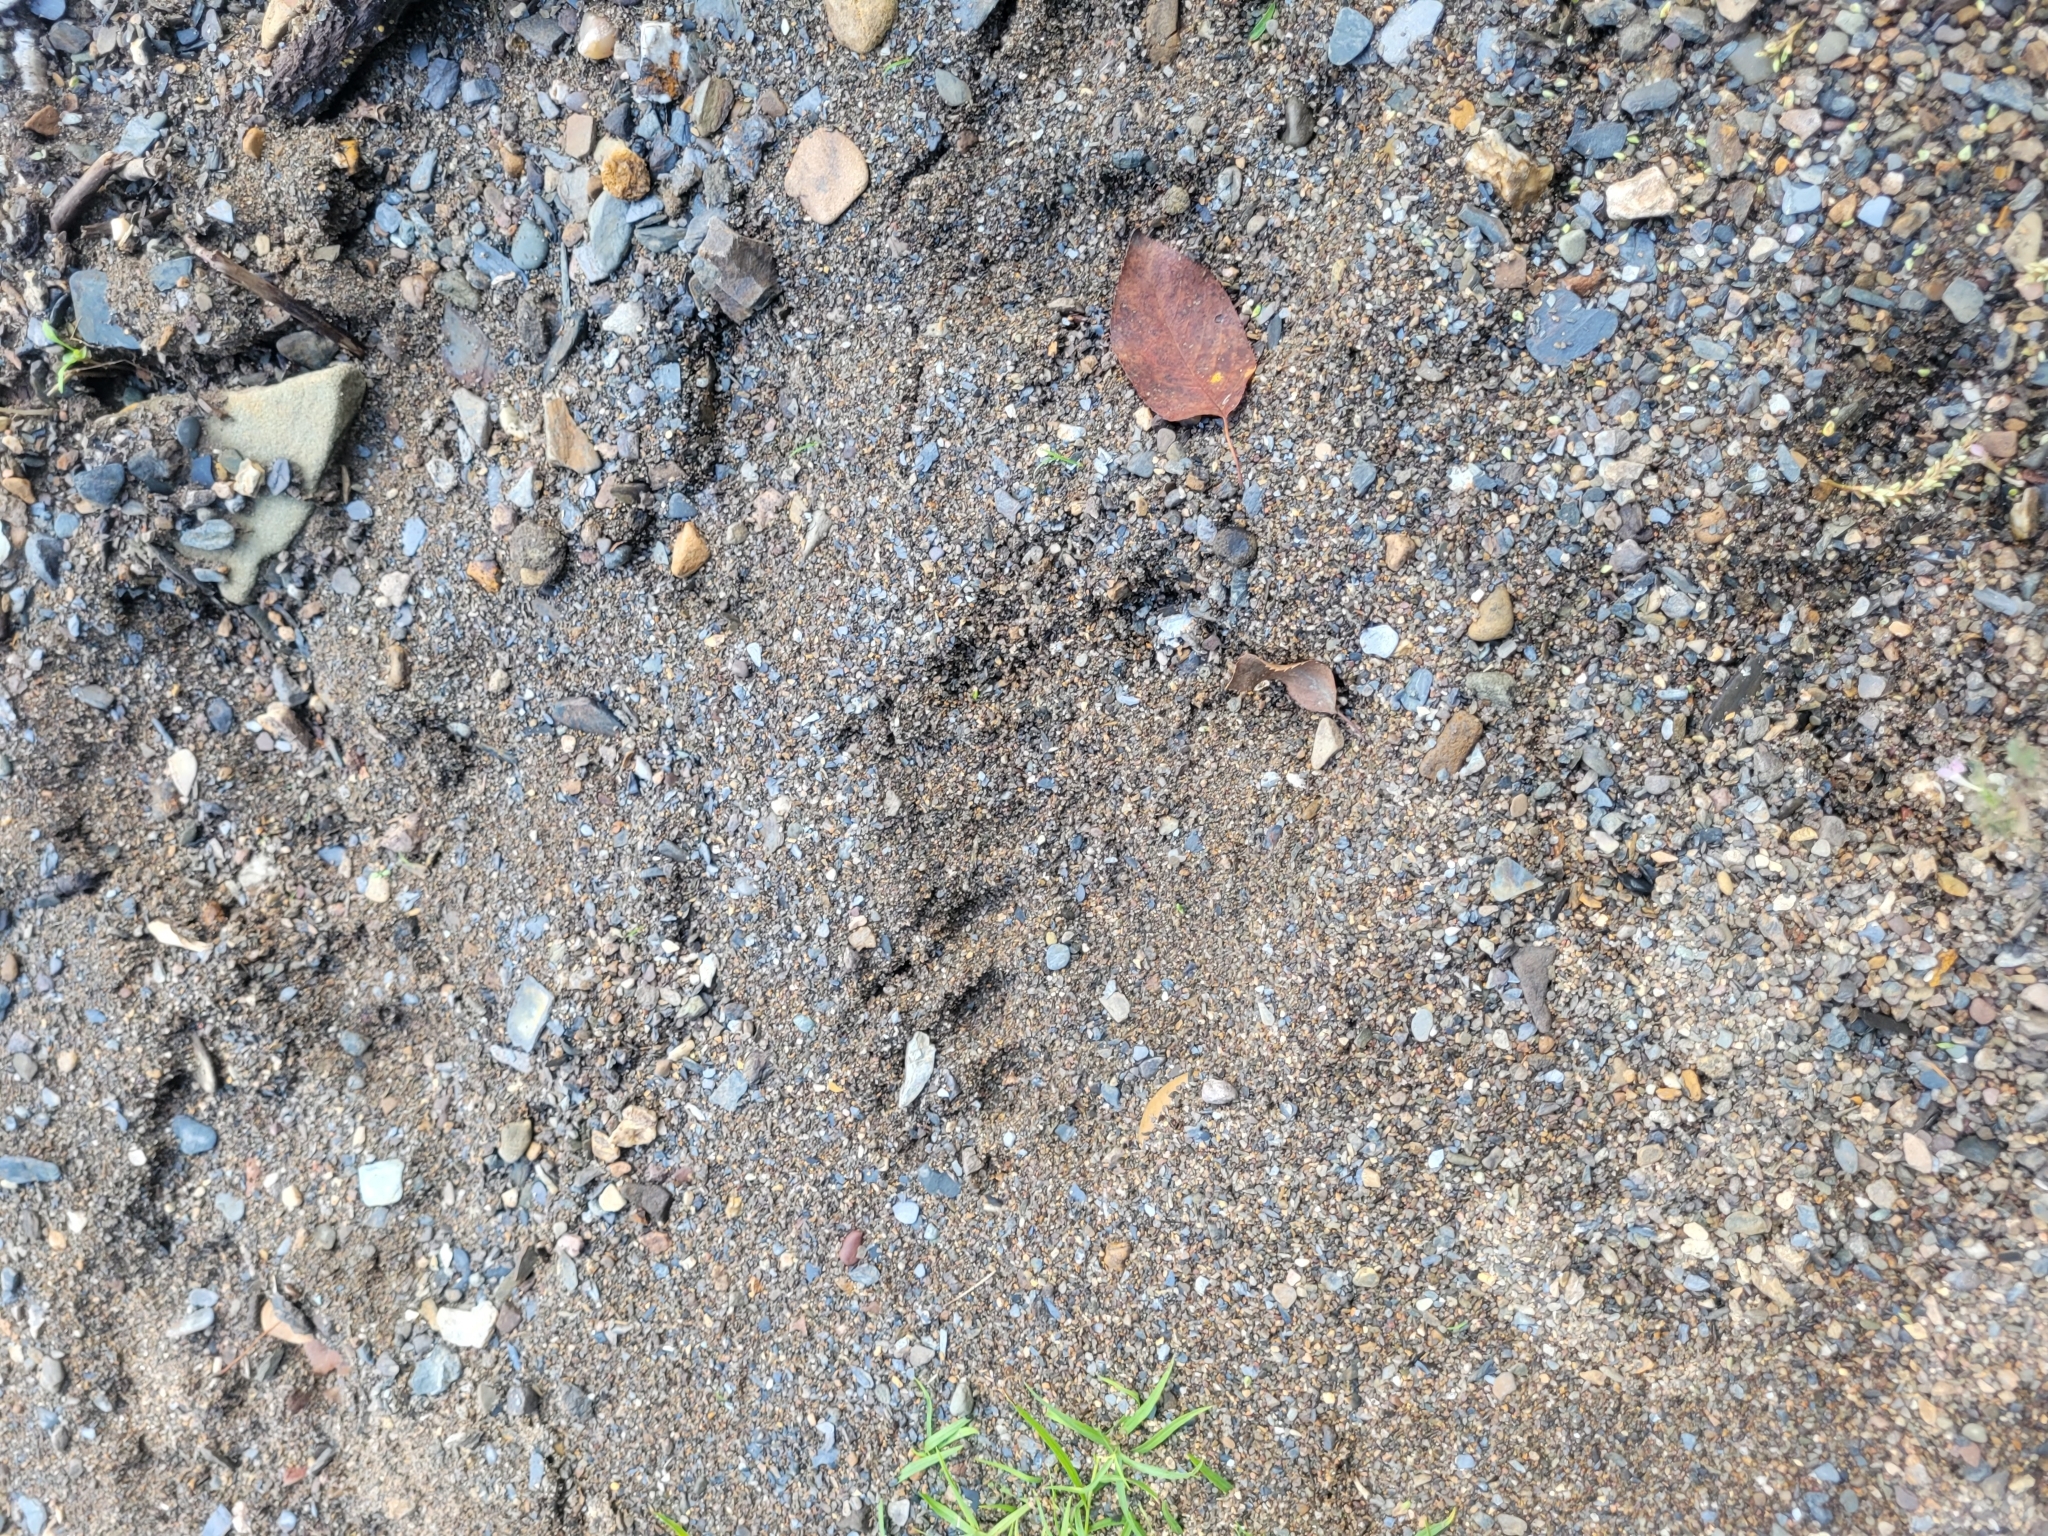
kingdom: Animalia
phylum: Chordata
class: Mammalia
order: Carnivora
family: Ursidae
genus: Ursus
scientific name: Ursus americanus
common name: American black bear
